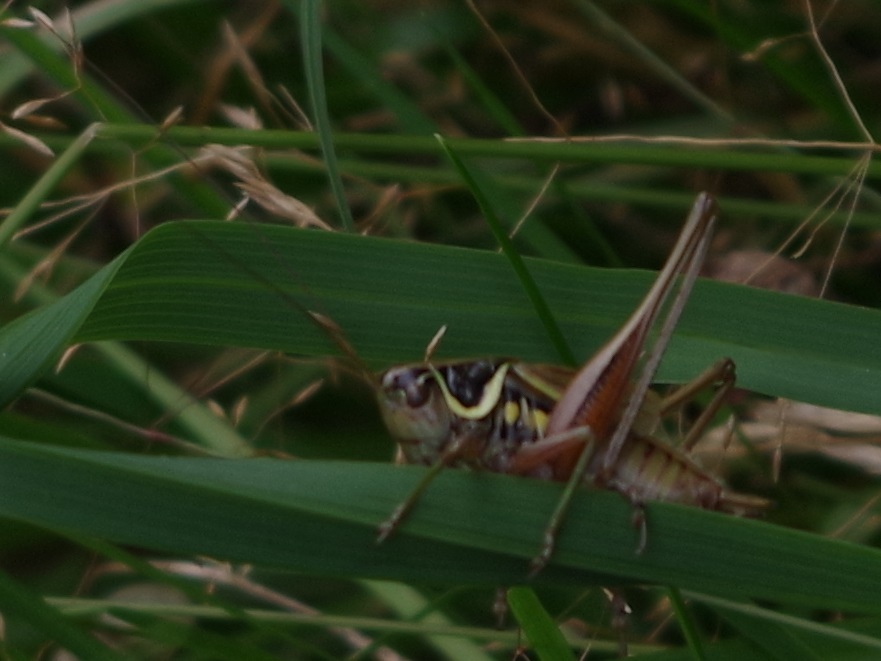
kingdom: Animalia
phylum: Arthropoda
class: Insecta
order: Orthoptera
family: Tettigoniidae
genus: Roeseliana
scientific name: Roeseliana roeselii
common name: Roesel's bush cricket
